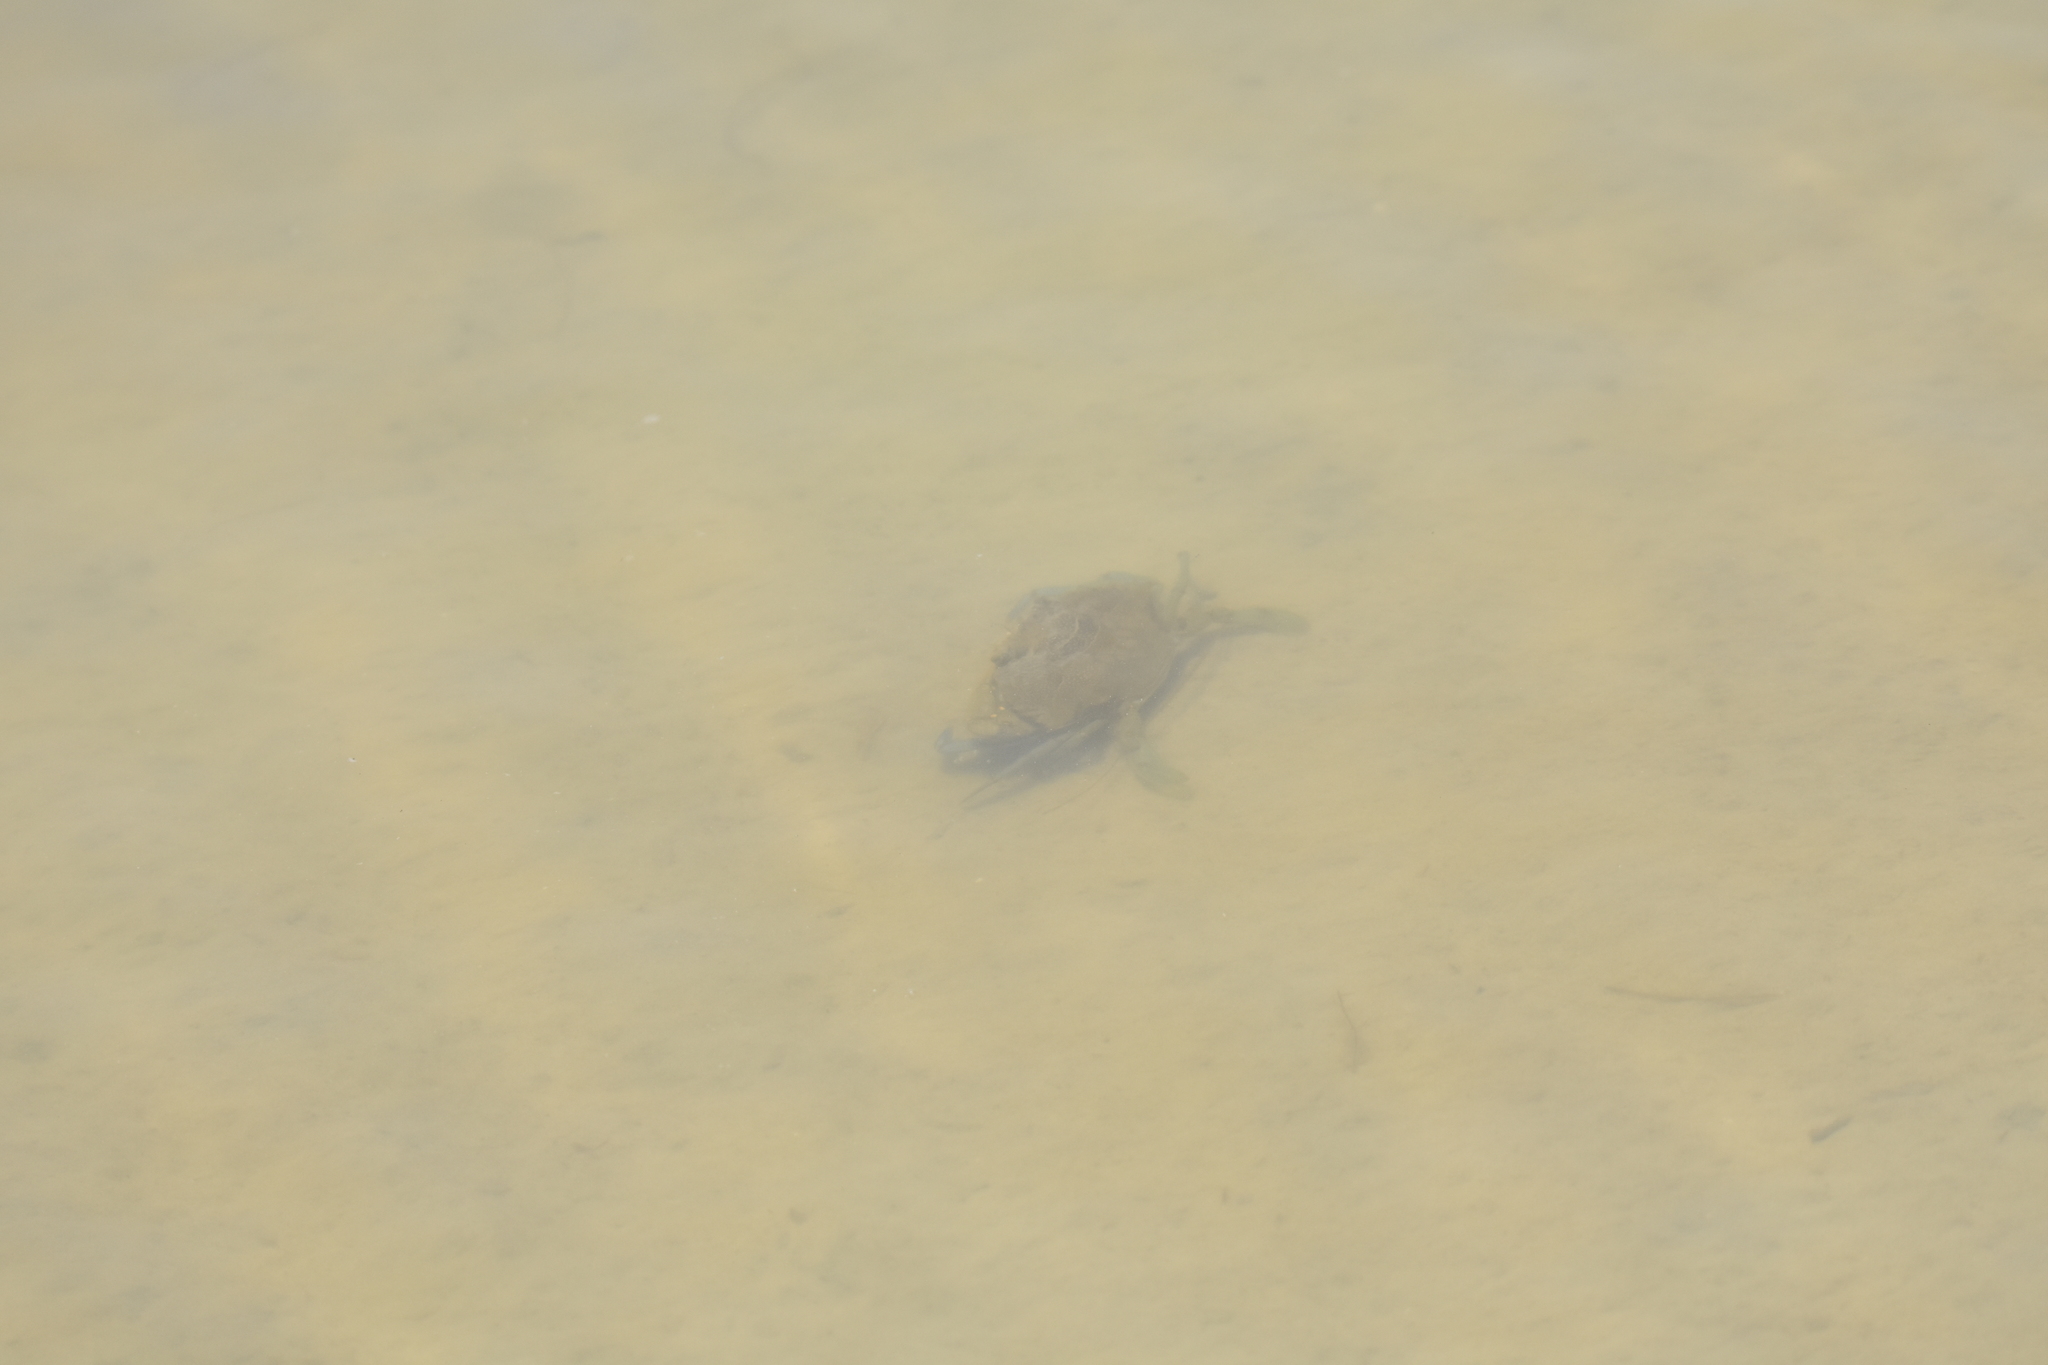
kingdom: Animalia
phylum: Arthropoda
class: Malacostraca
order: Decapoda
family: Portunidae
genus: Callinectes
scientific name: Callinectes sapidus
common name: Blue crab
